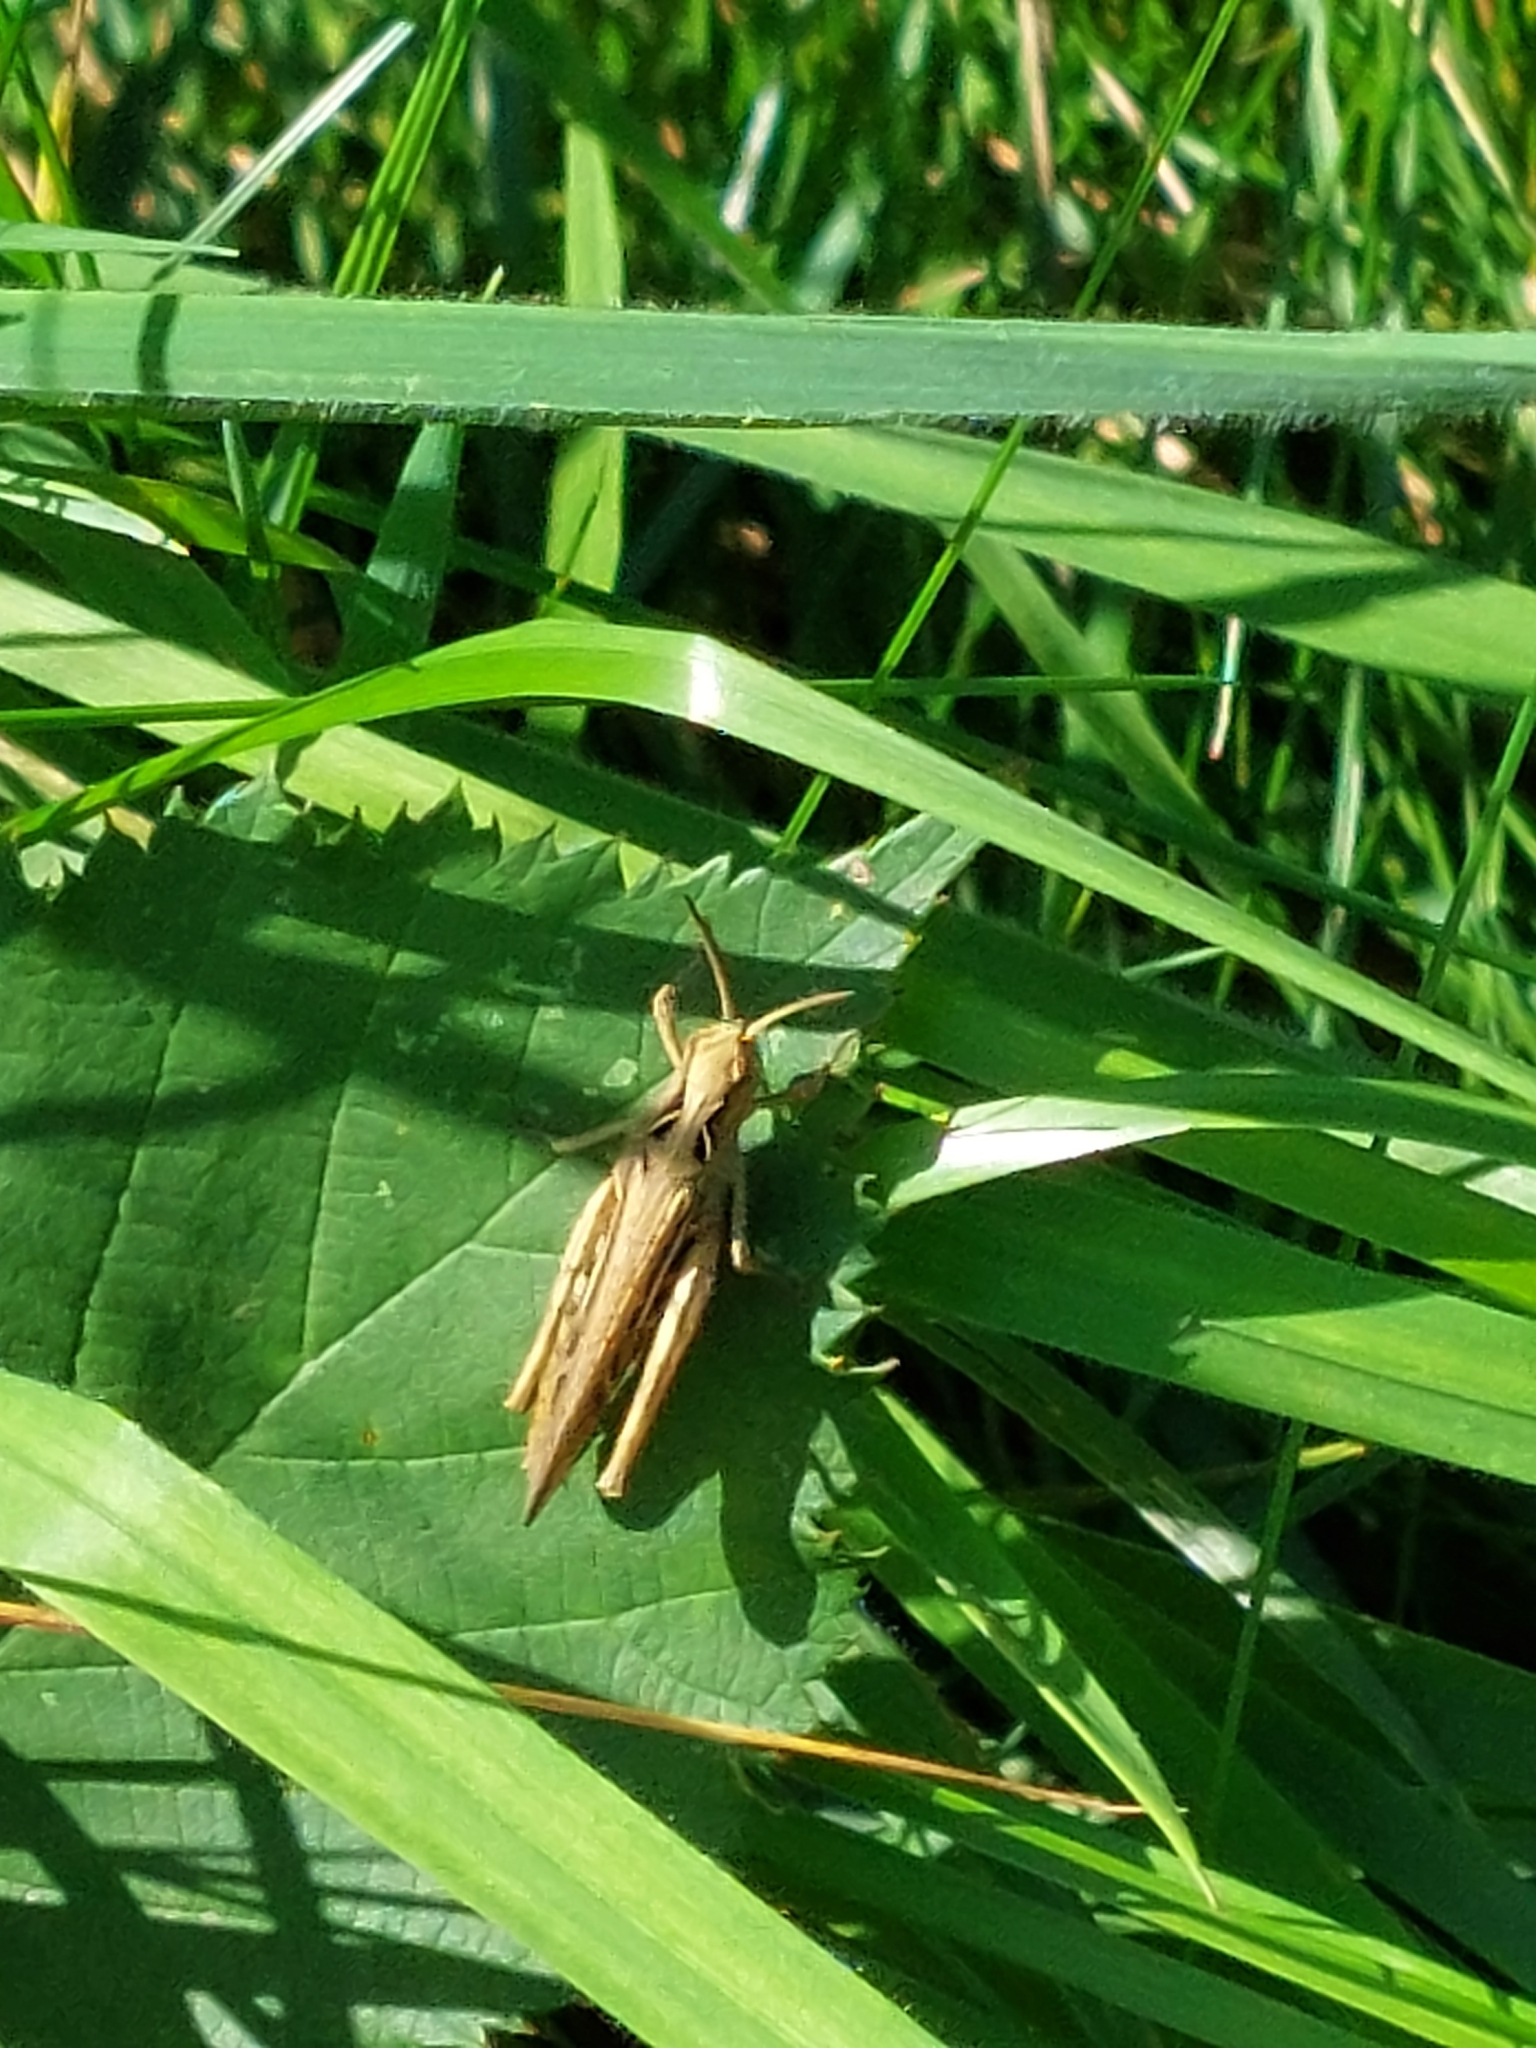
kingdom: Animalia
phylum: Arthropoda
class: Insecta
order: Orthoptera
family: Acrididae
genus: Chorthippus
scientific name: Chorthippus brunneus
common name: Field grasshopper
